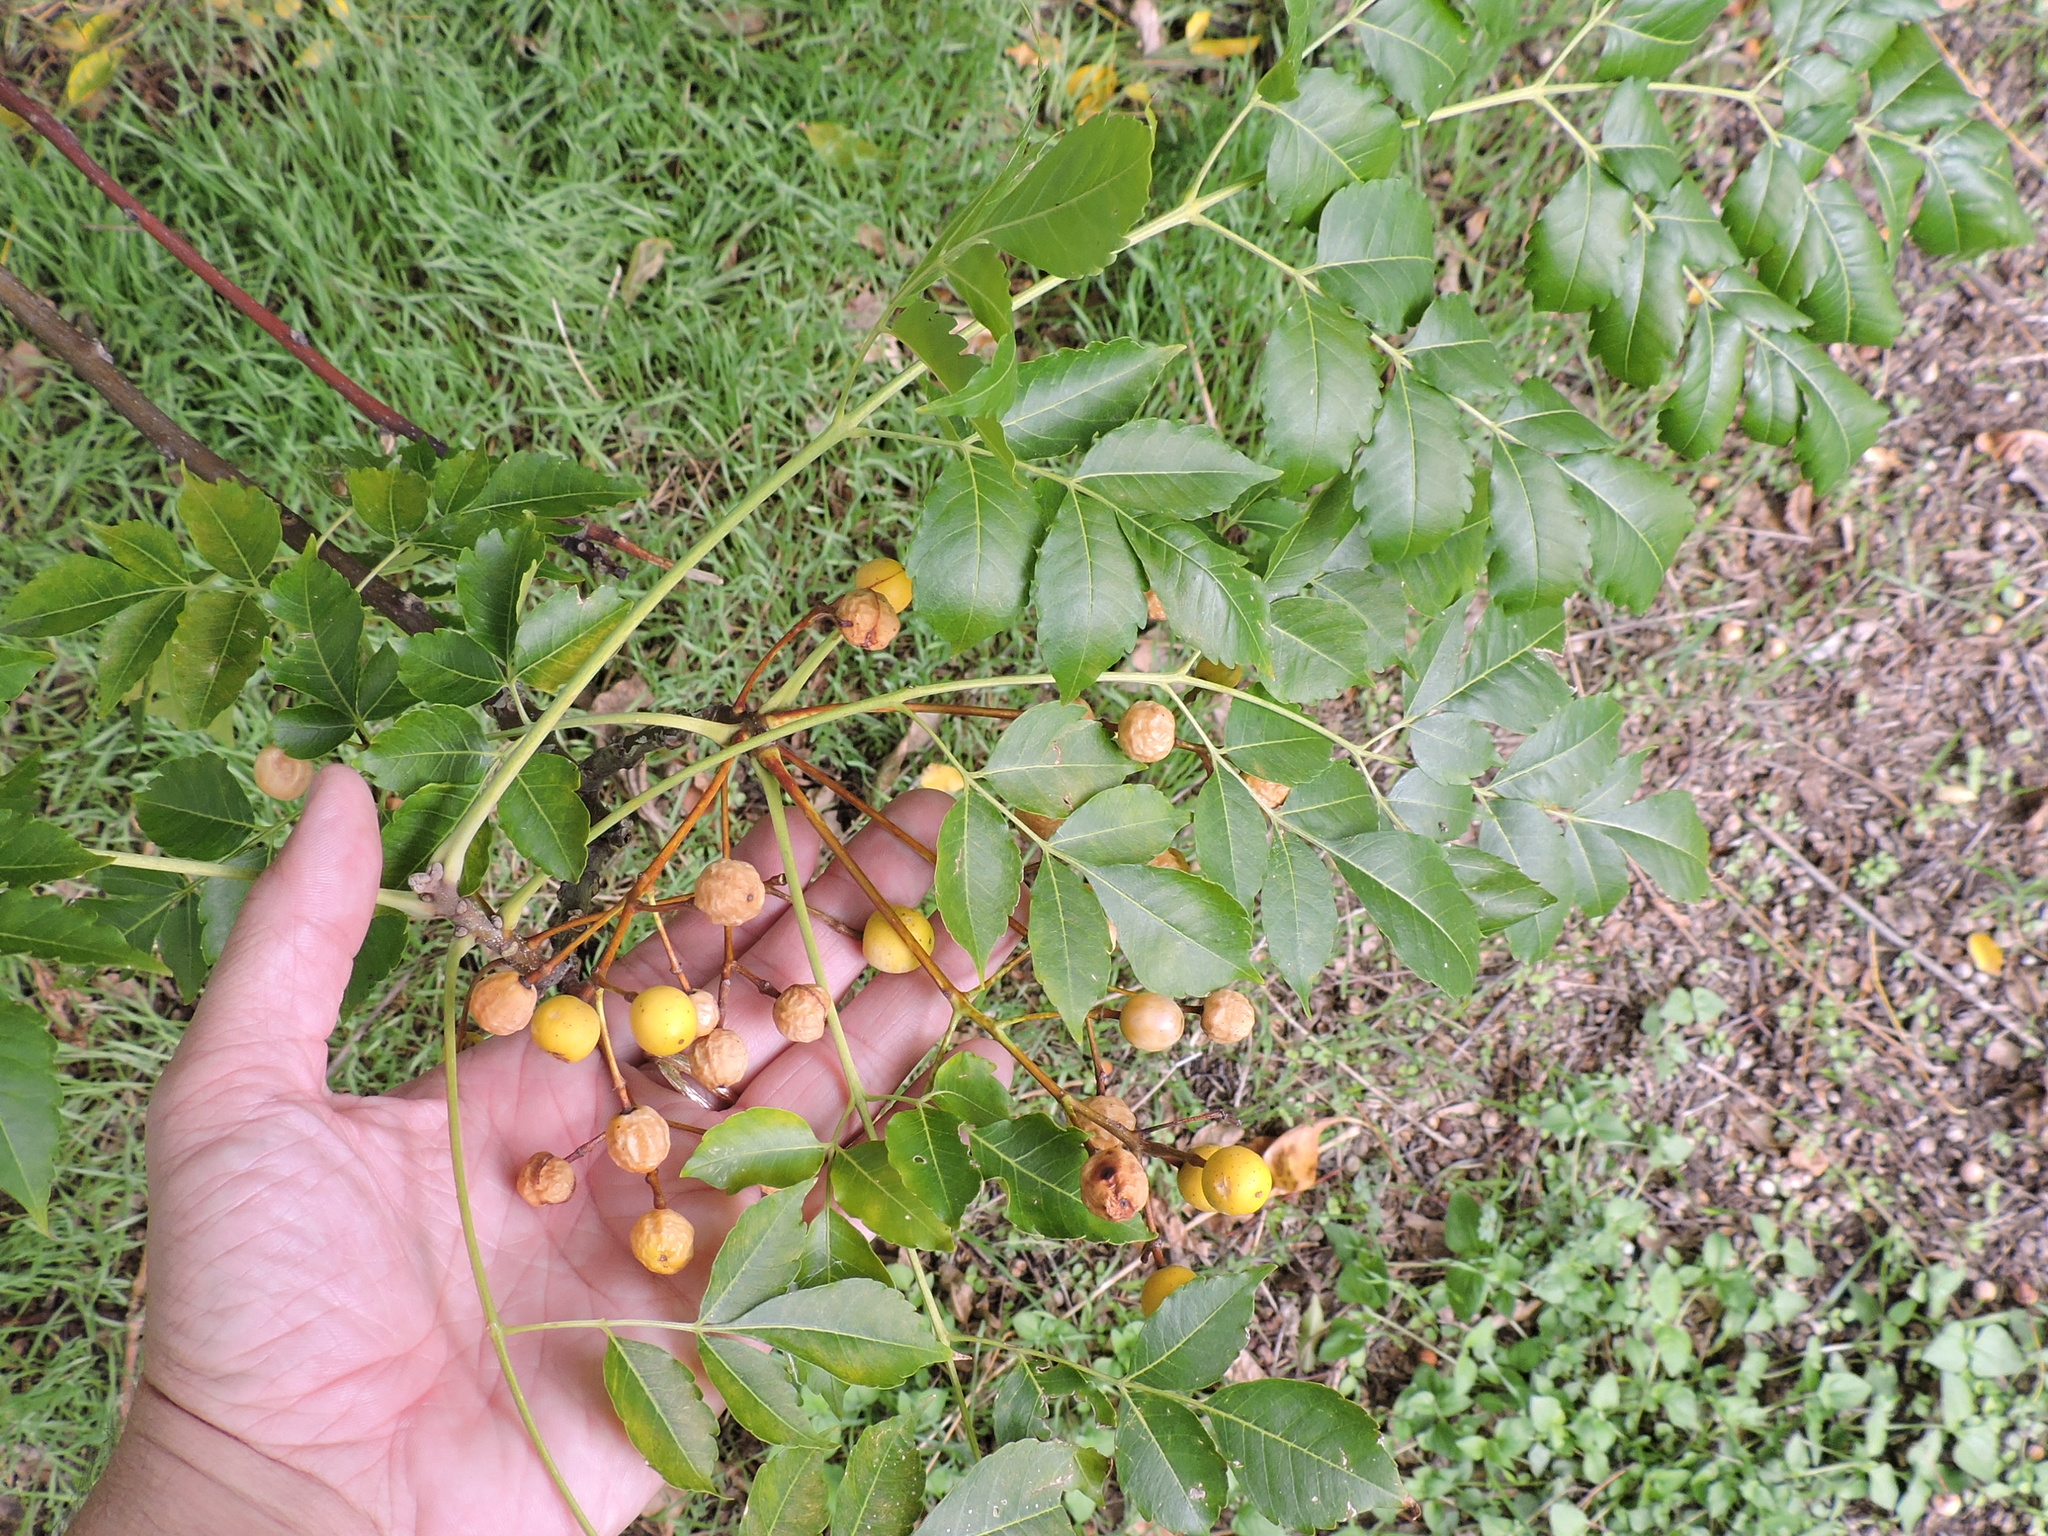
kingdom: Plantae
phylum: Tracheophyta
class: Magnoliopsida
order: Sapindales
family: Meliaceae
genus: Melia
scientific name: Melia azedarach
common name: Chinaberrytree
